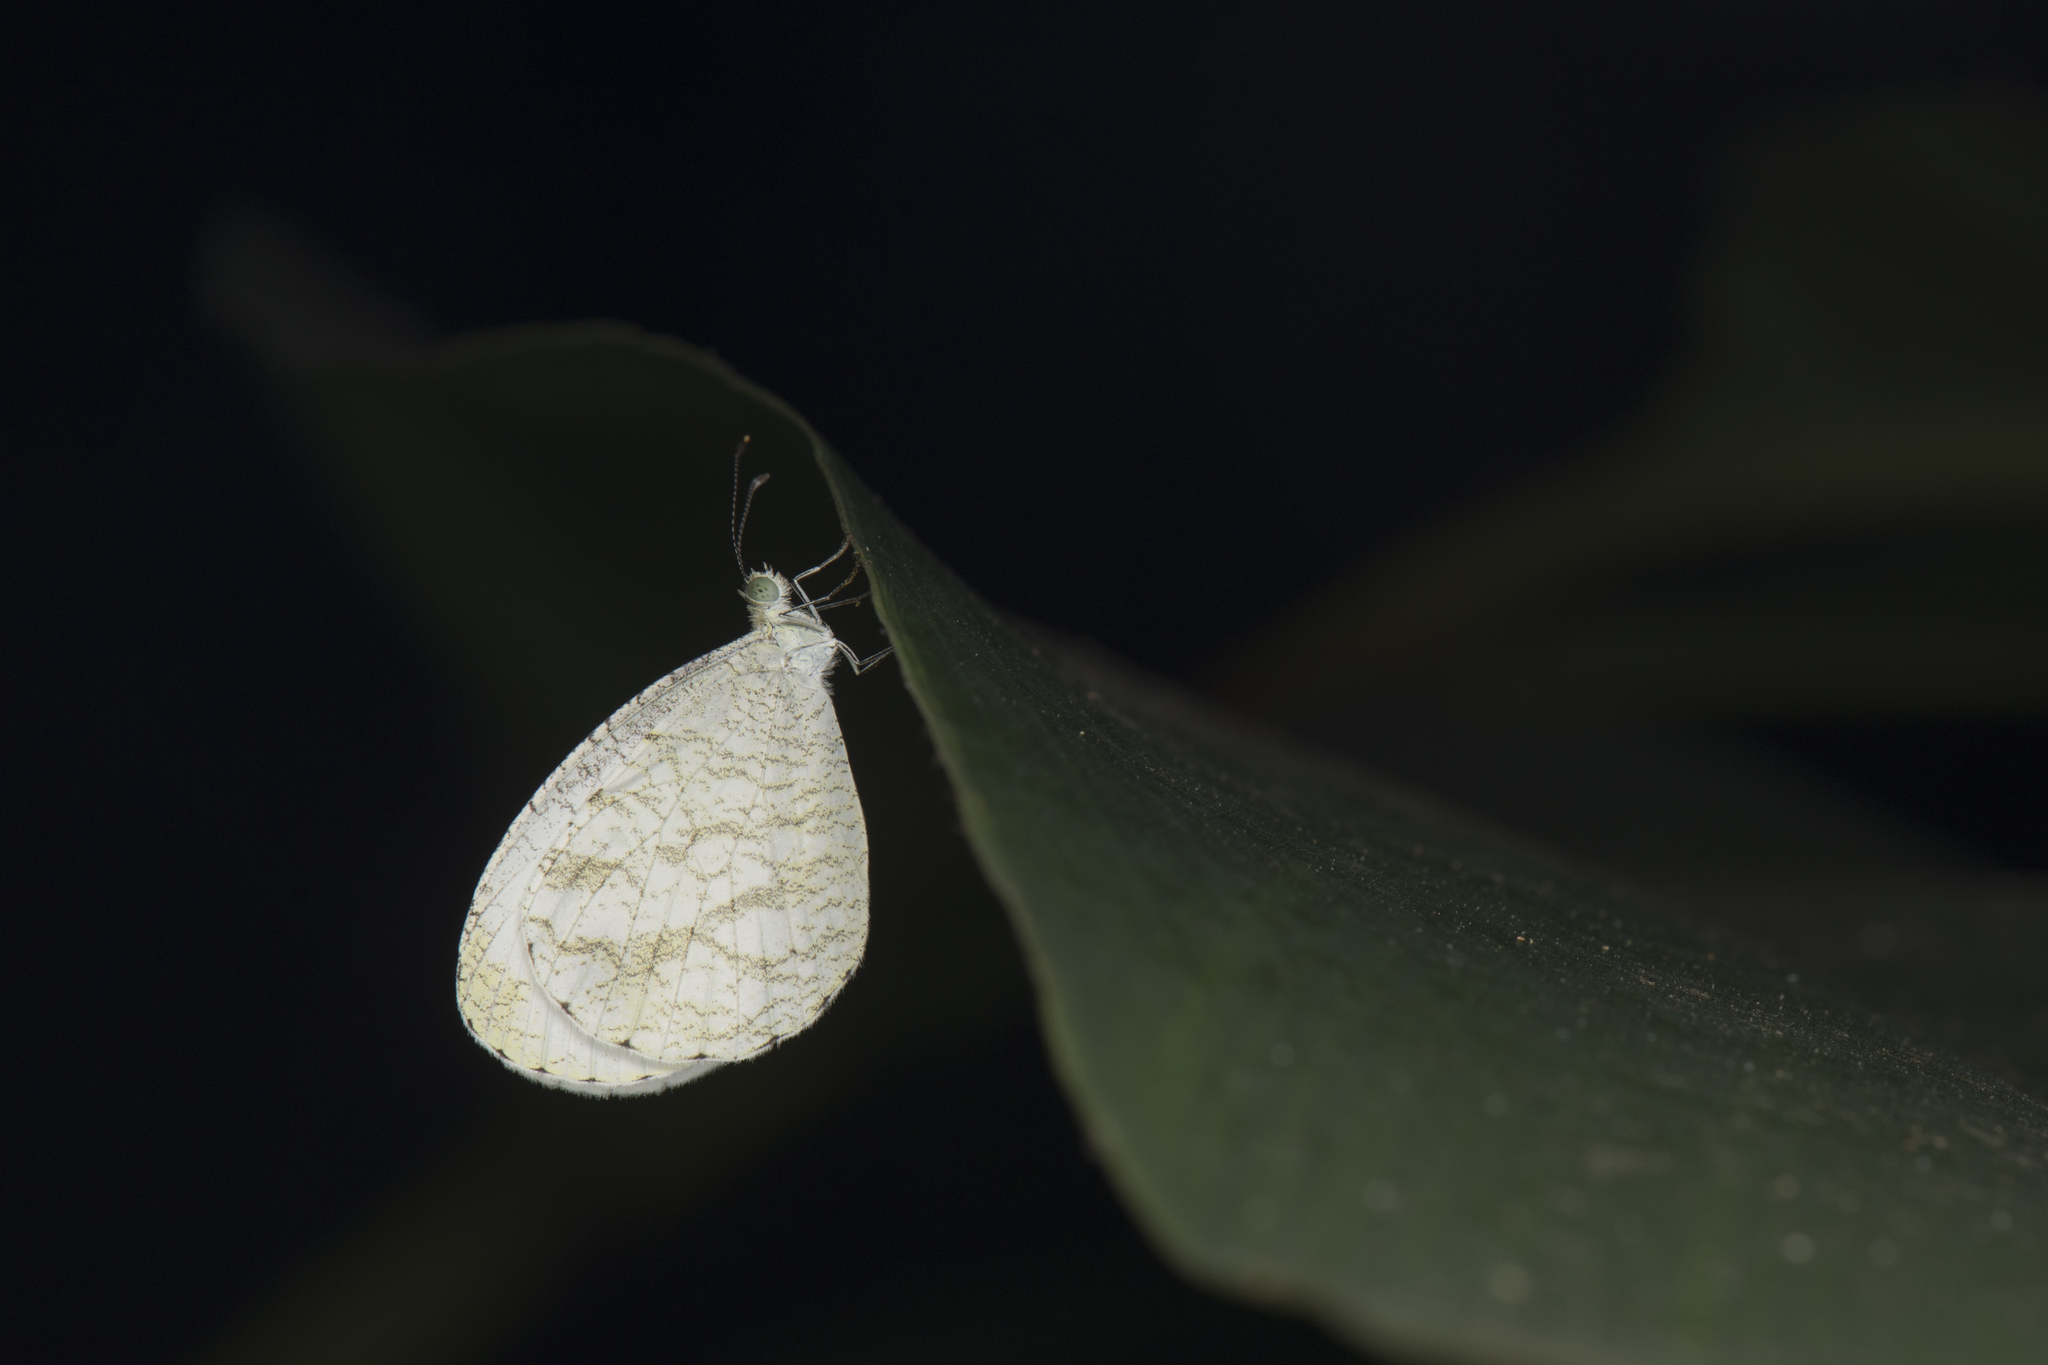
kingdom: Animalia
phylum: Arthropoda
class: Insecta
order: Lepidoptera
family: Pieridae
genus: Leptosia
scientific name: Leptosia nina
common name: Psyche
